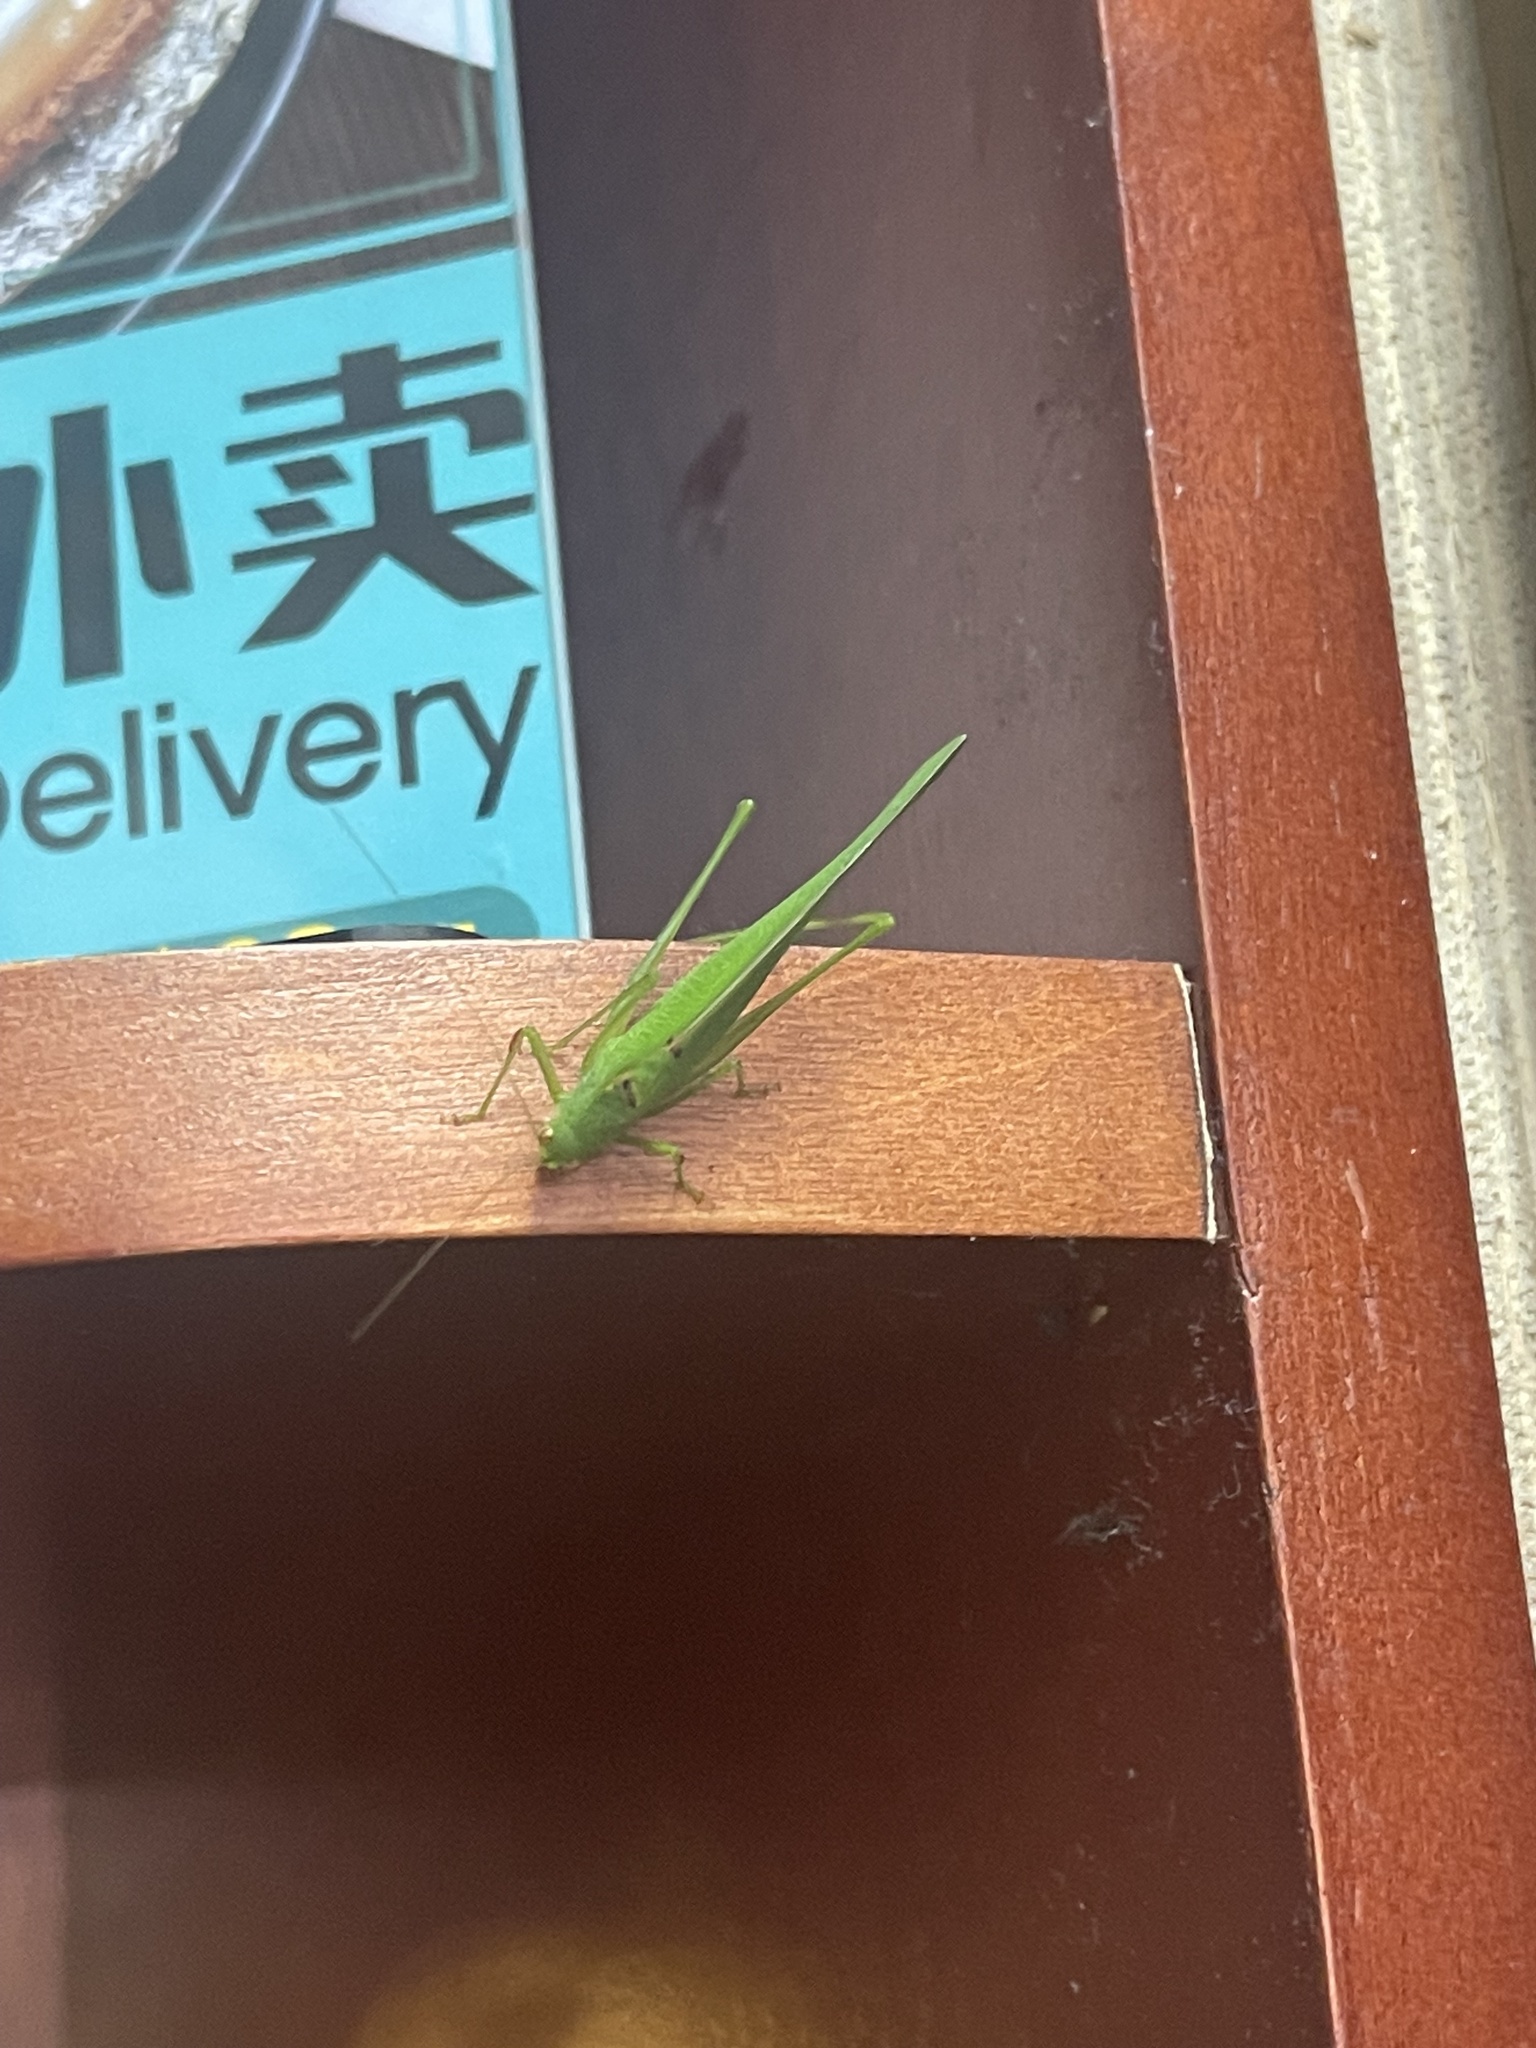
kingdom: Animalia
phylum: Arthropoda
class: Insecta
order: Orthoptera
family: Tettigoniidae
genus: Phaneroptera
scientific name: Phaneroptera nana
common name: Southern sickle bush-cricket
